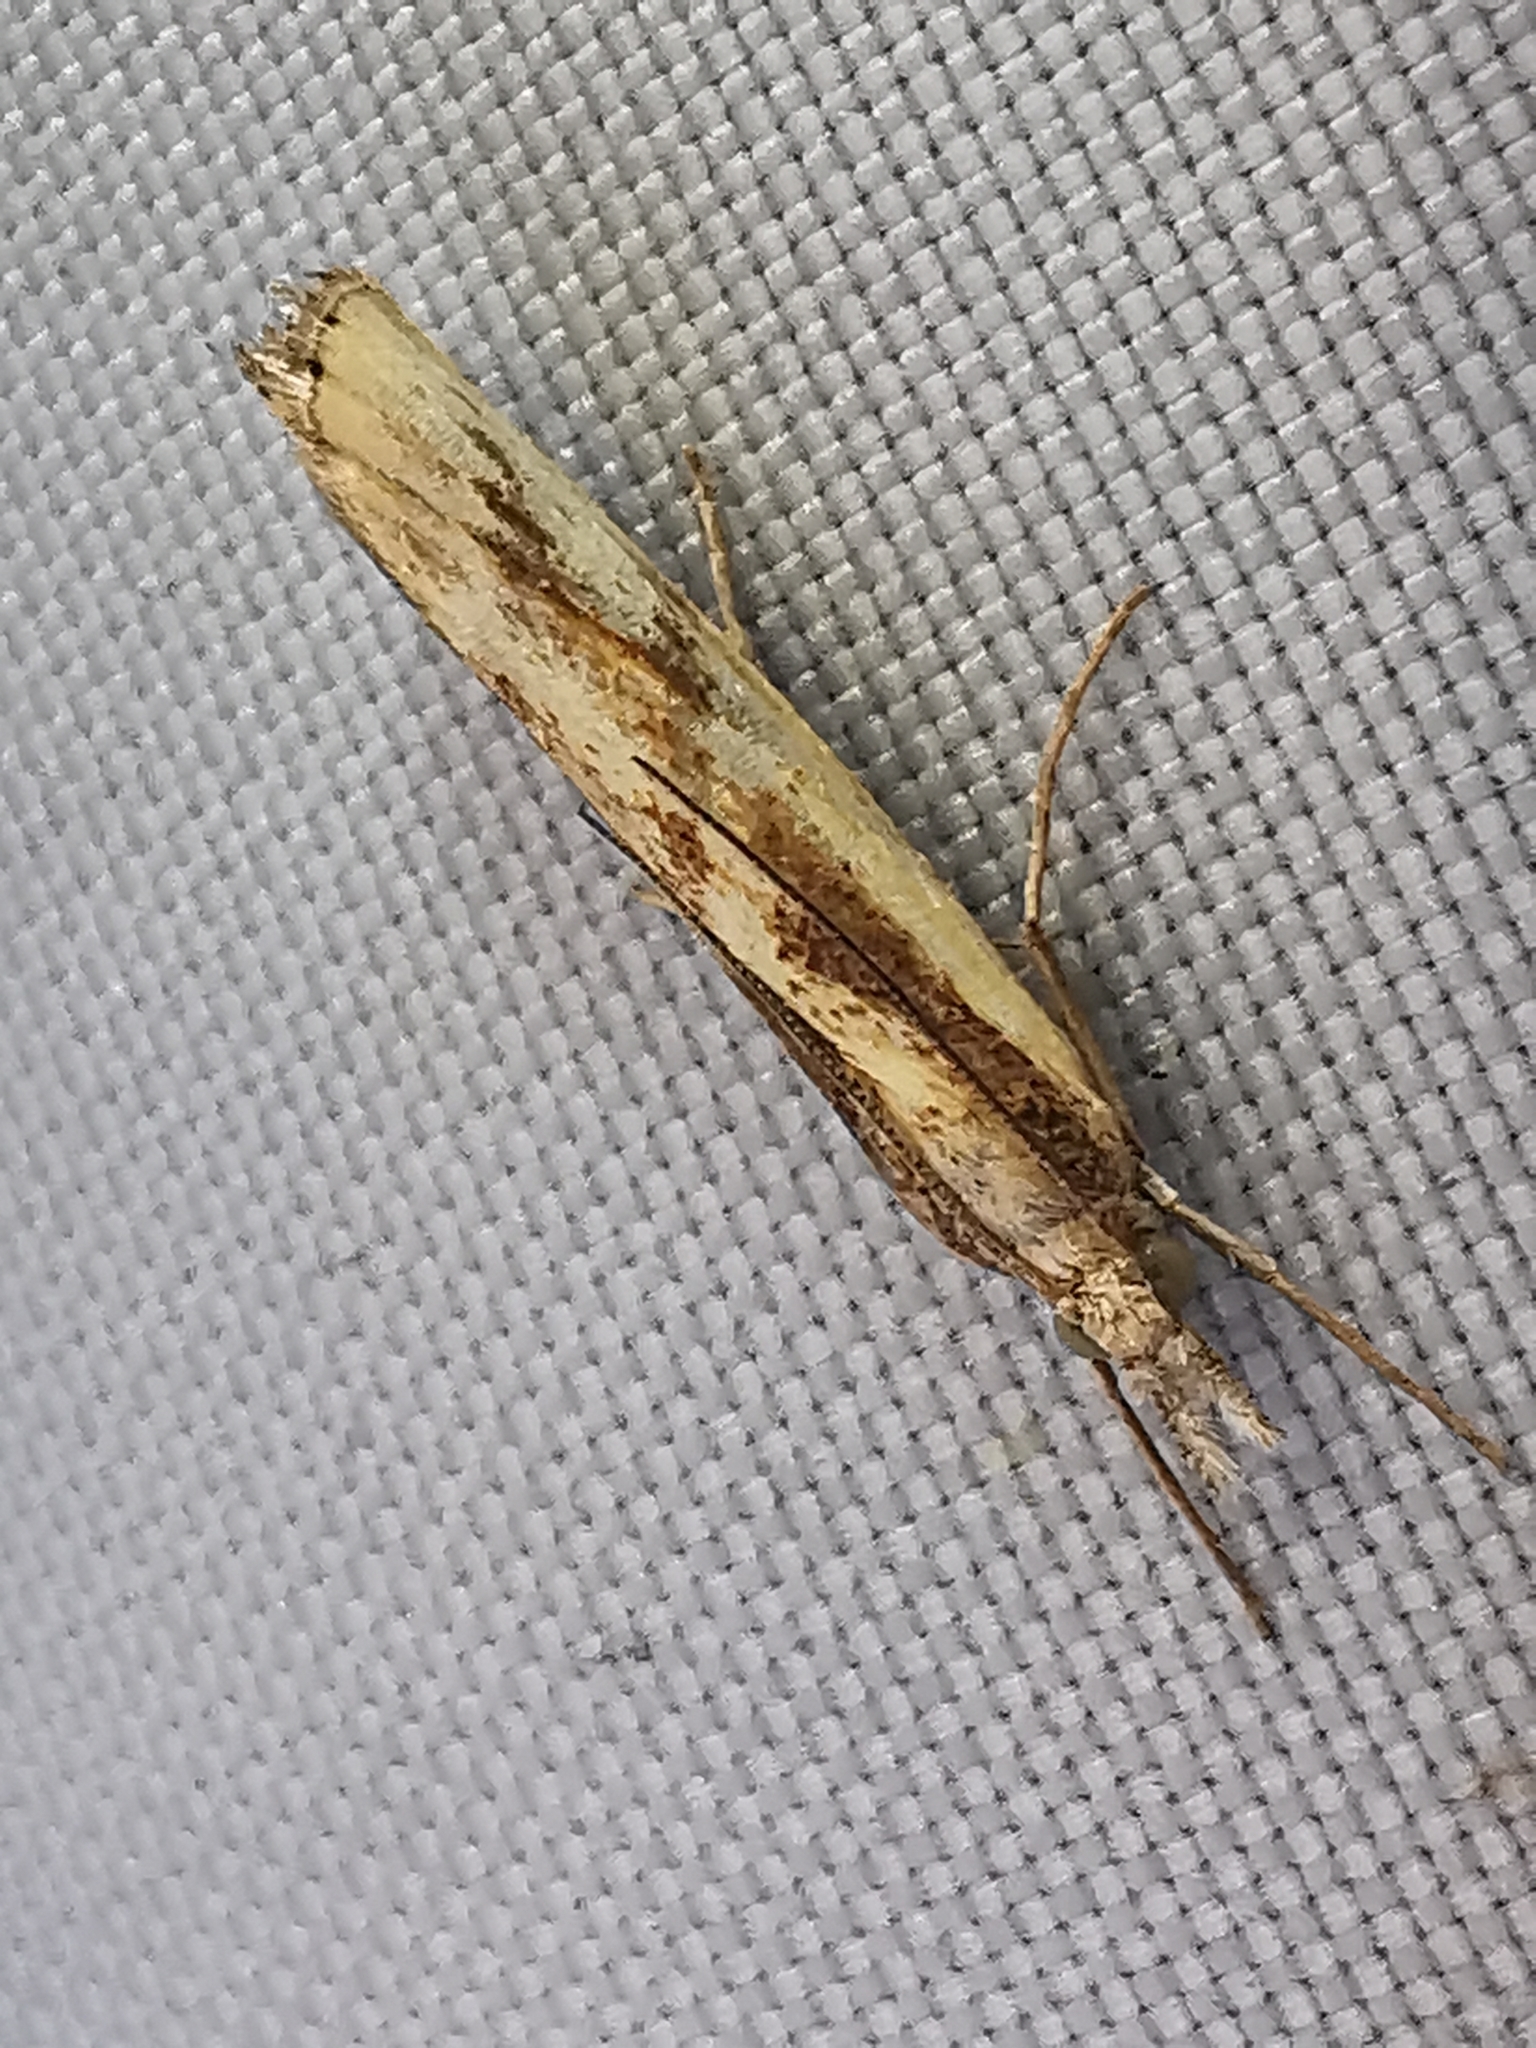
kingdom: Animalia
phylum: Arthropoda
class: Insecta
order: Lepidoptera
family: Crambidae
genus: Agriphila
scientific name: Agriphila inquinatella
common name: Barred grass-veneer
